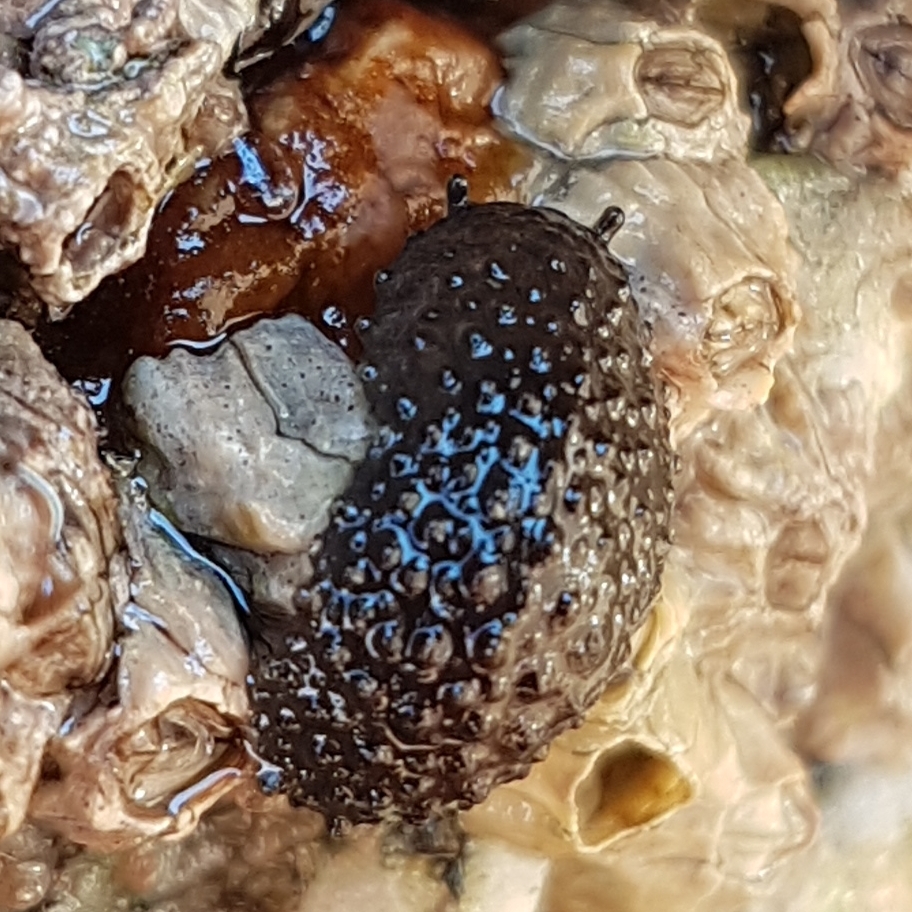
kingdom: Animalia
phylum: Mollusca
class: Gastropoda
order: Systellommatophora
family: Onchidiidae
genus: Onchidella
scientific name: Onchidella celtica
